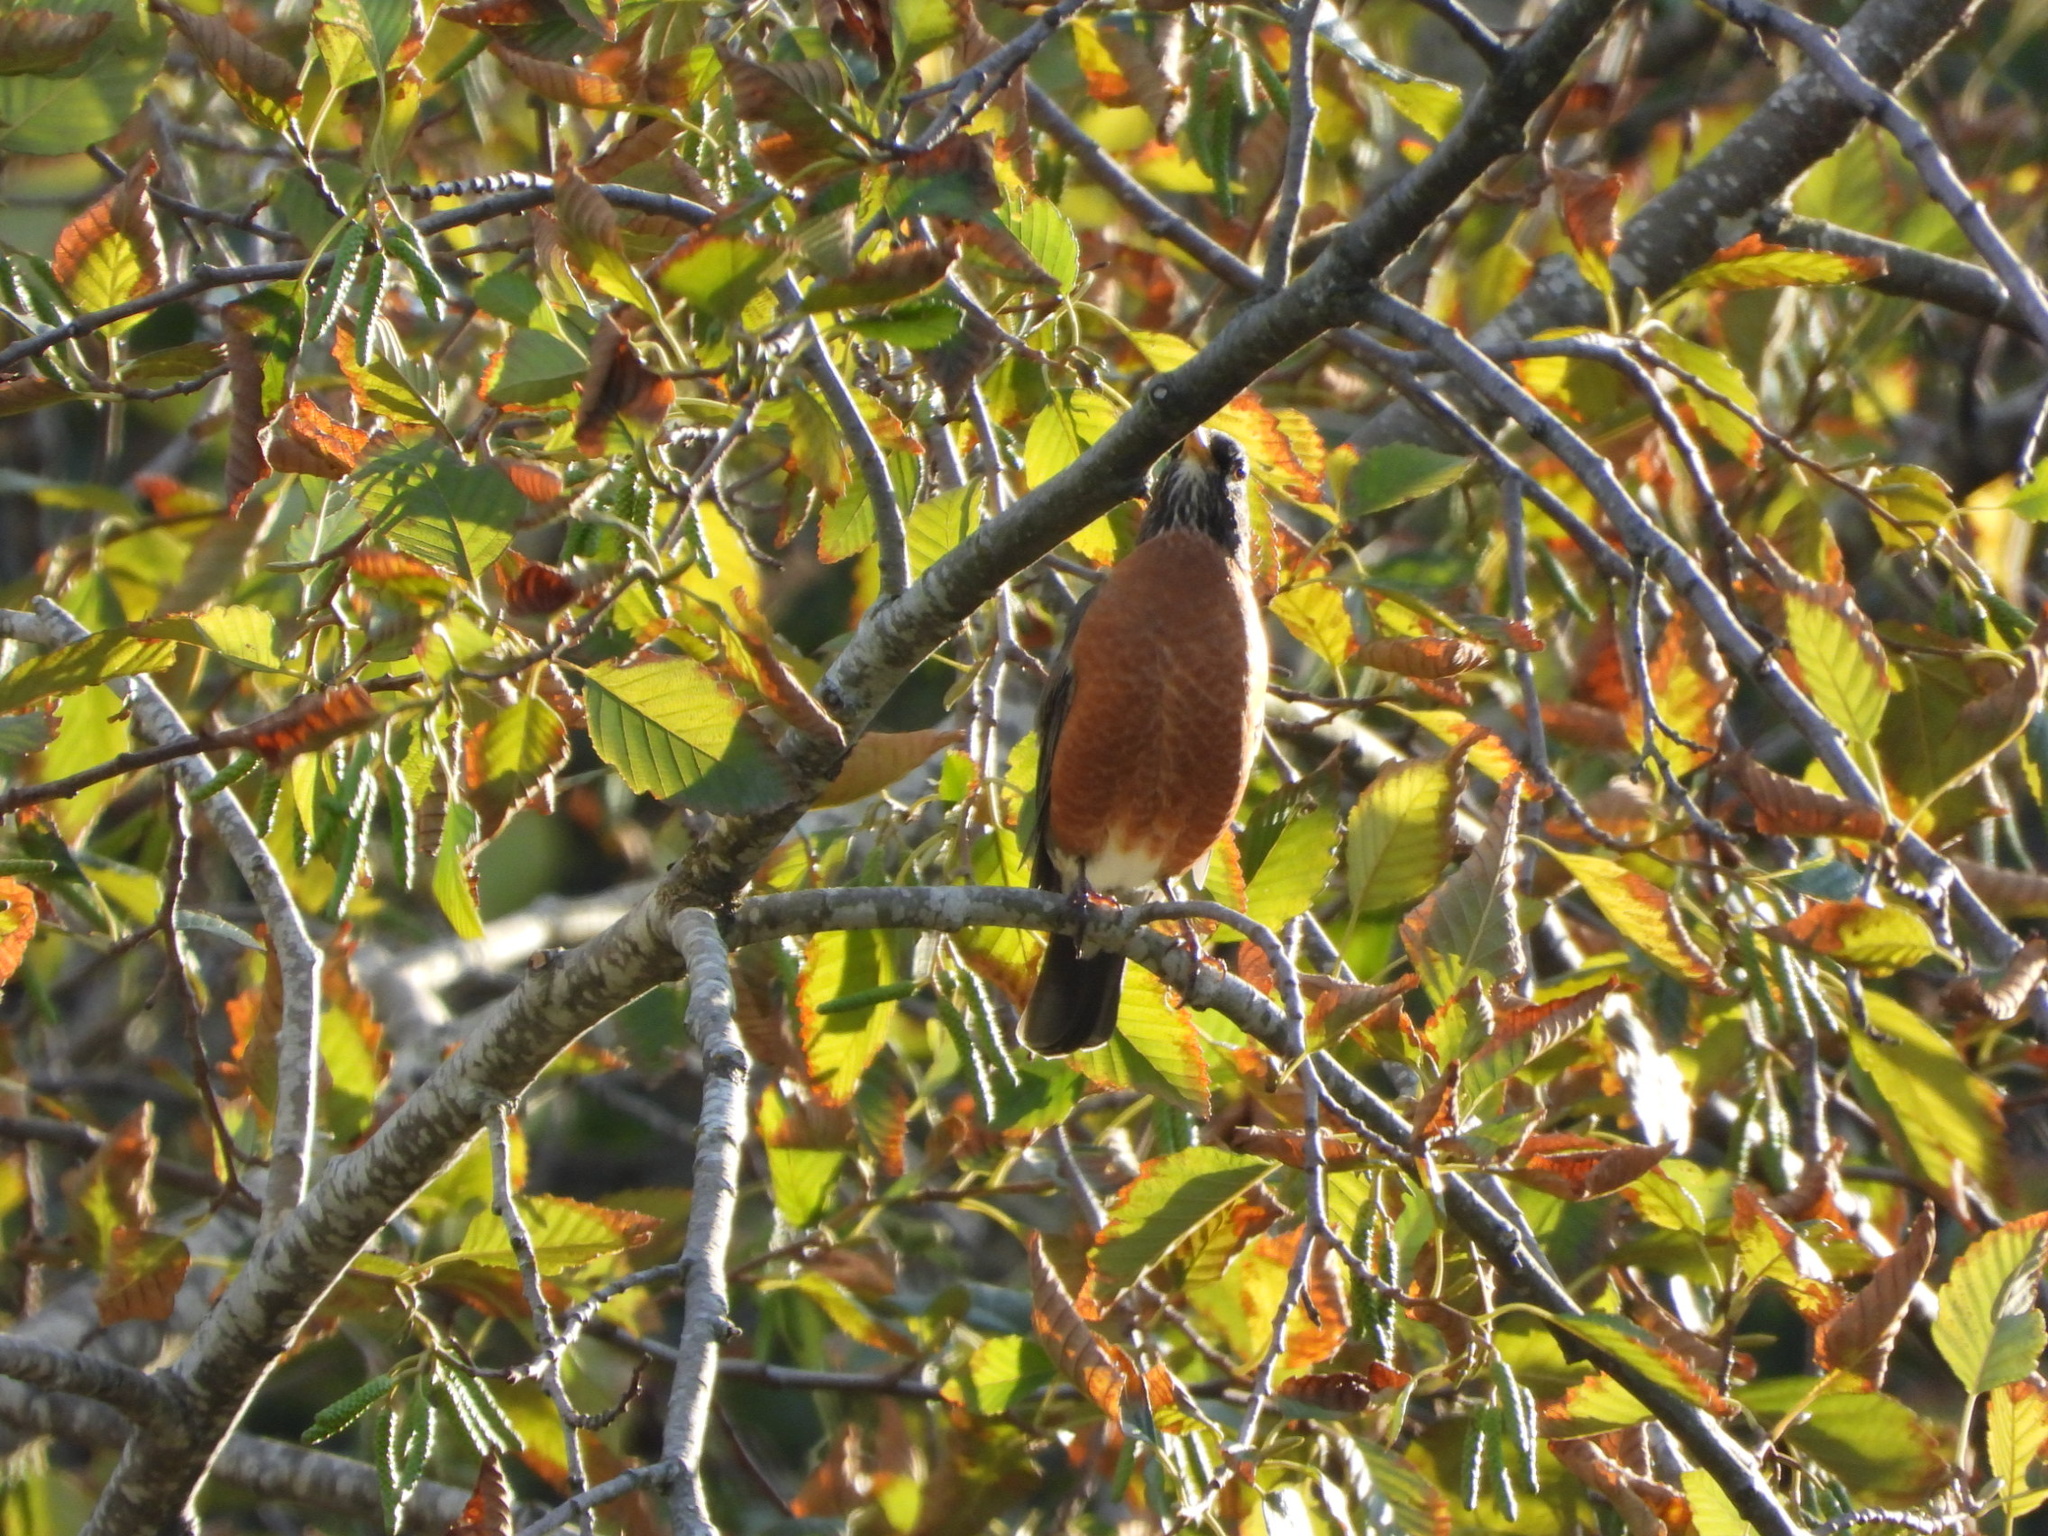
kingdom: Animalia
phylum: Chordata
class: Aves
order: Passeriformes
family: Turdidae
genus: Turdus
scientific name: Turdus migratorius
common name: American robin
